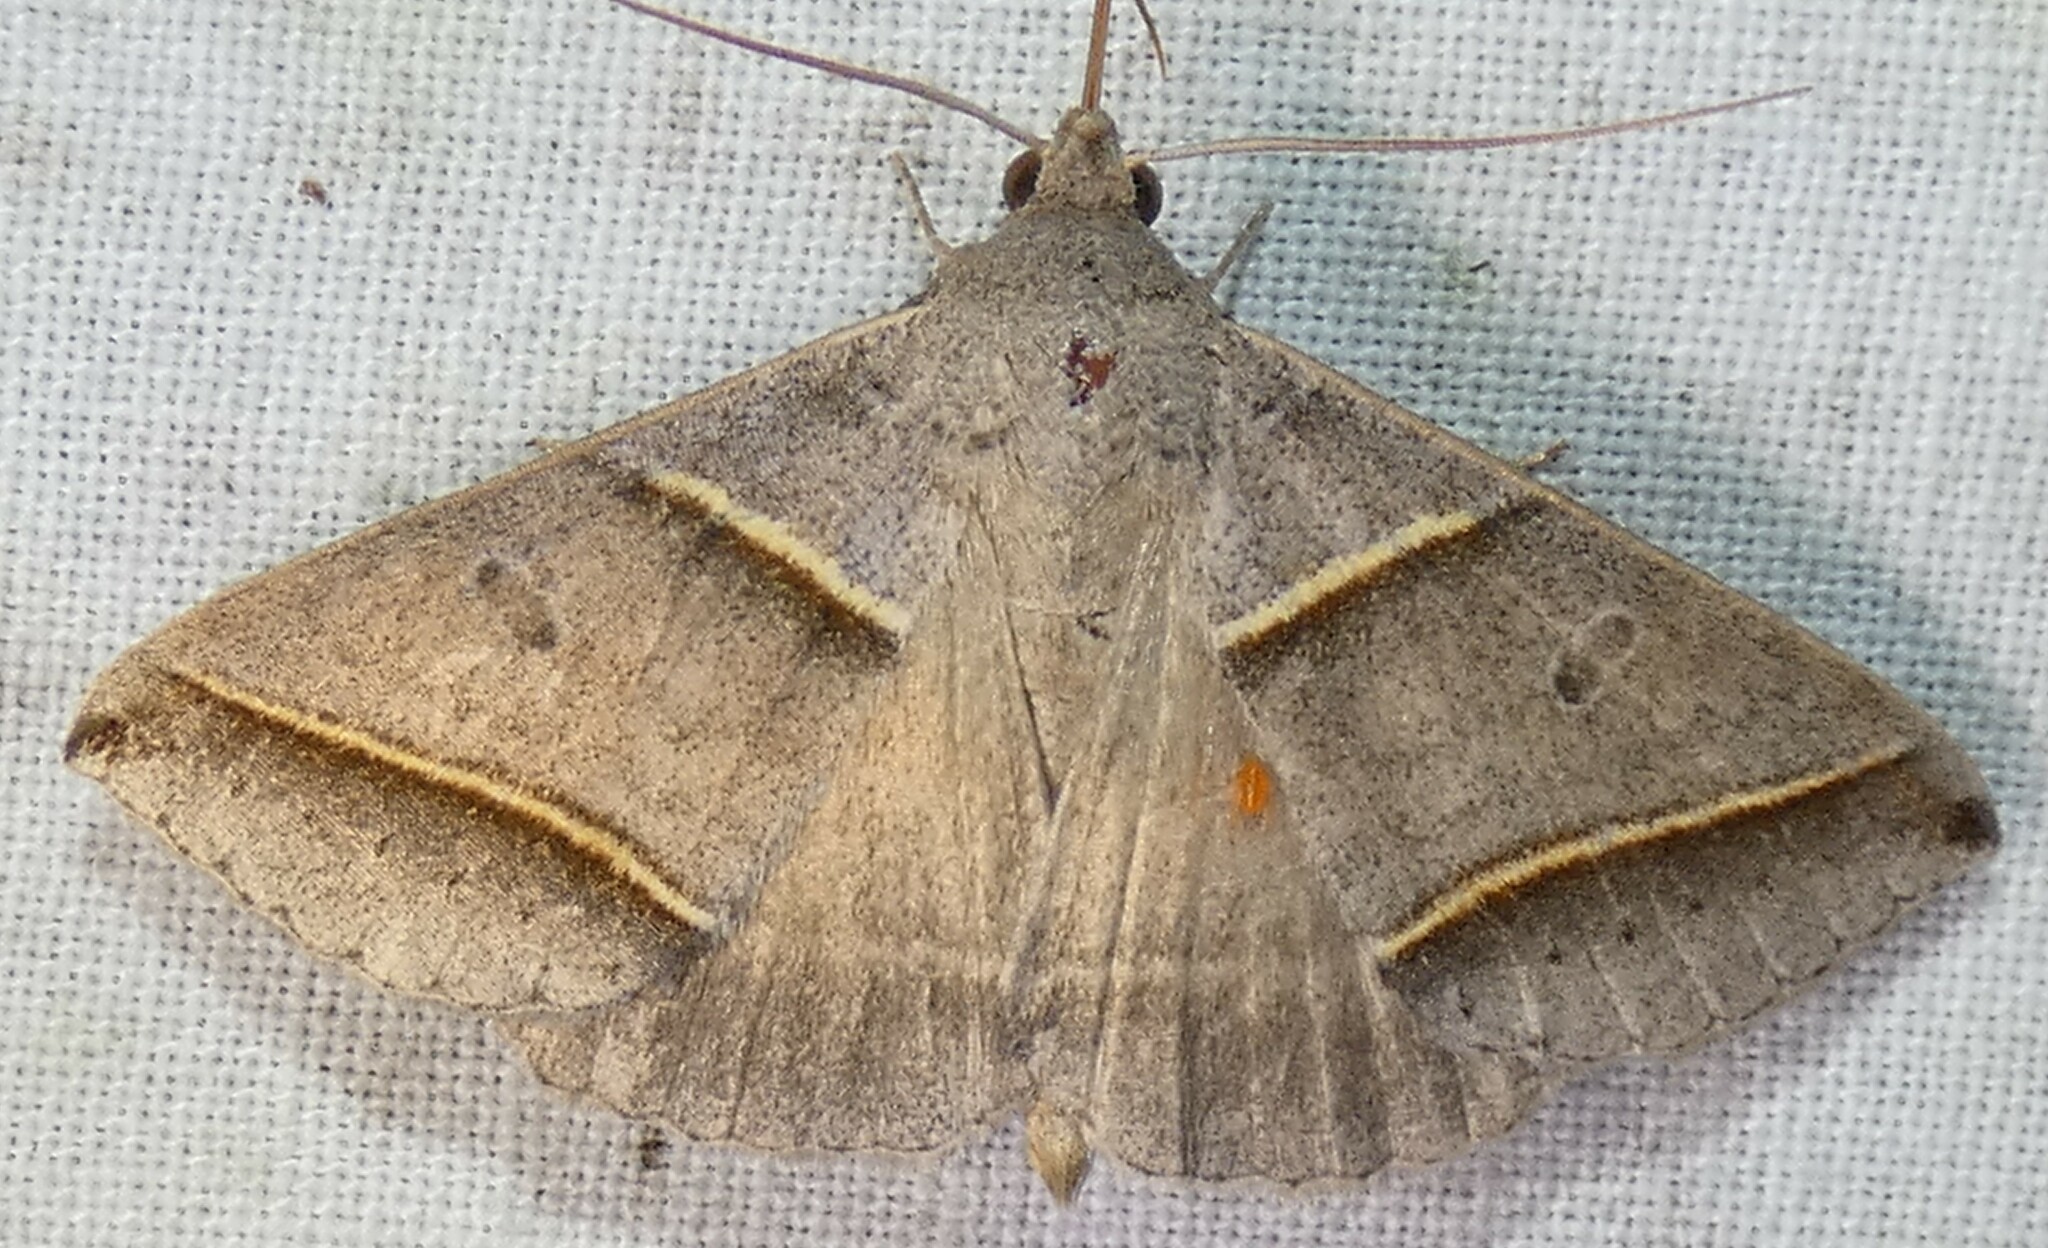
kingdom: Animalia
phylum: Arthropoda
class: Insecta
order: Lepidoptera
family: Erebidae
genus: Ptichodis
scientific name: Ptichodis vinculum
